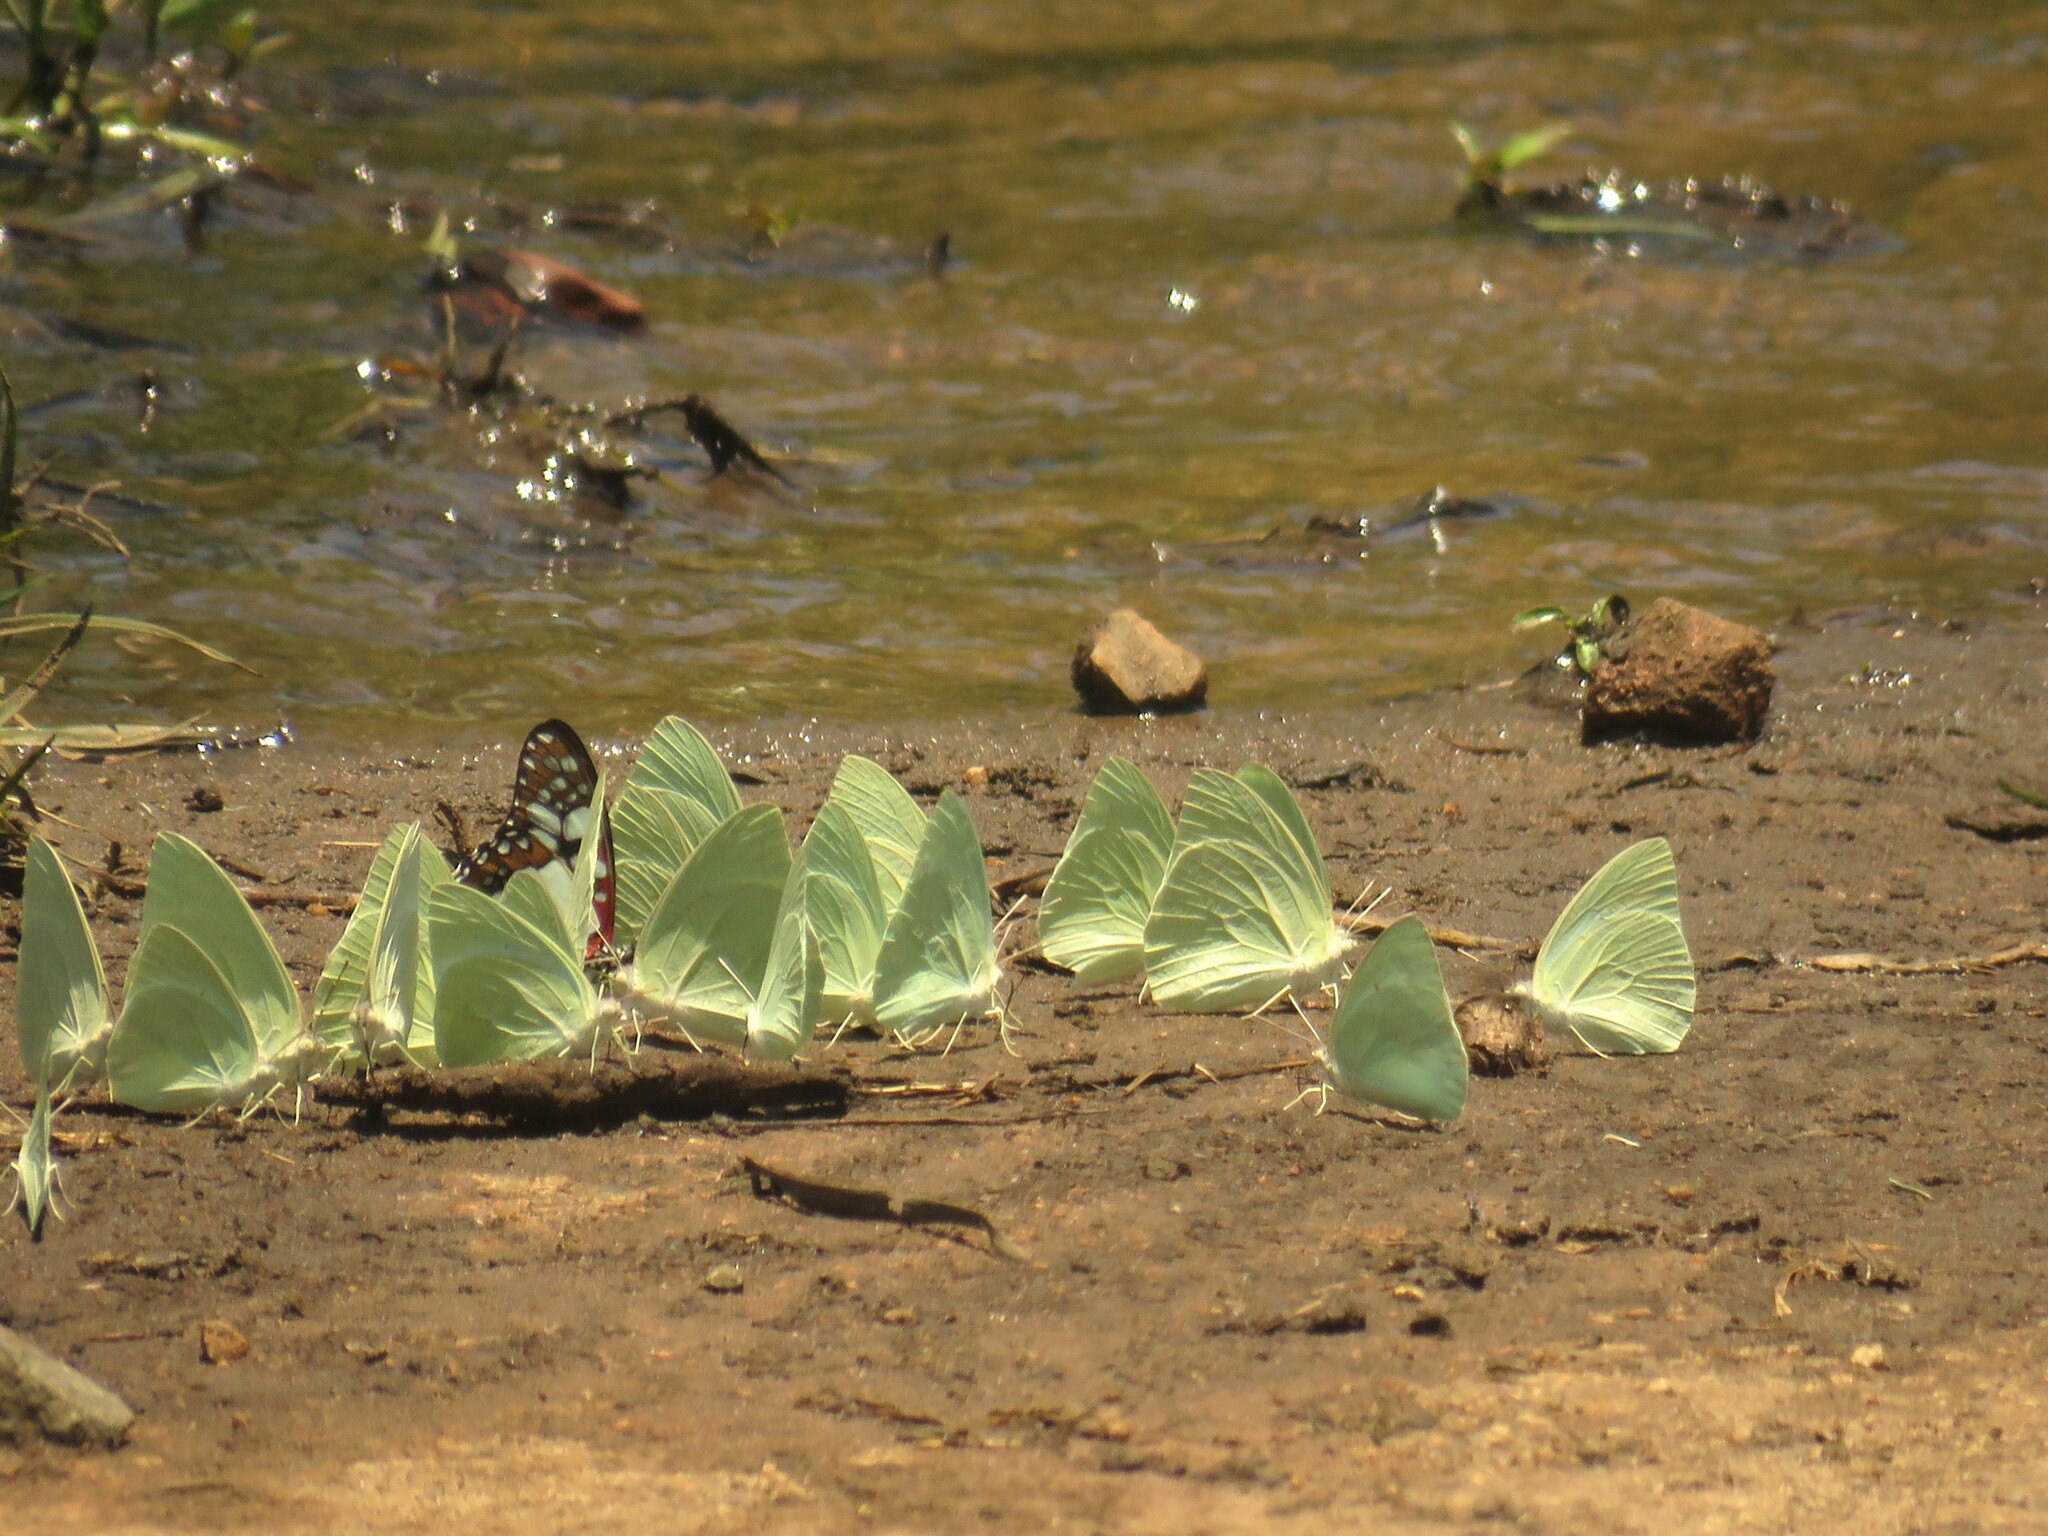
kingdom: Animalia
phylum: Arthropoda
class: Insecta
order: Lepidoptera
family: Pieridae
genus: Catopsilia
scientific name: Catopsilia florella
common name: African migrant
